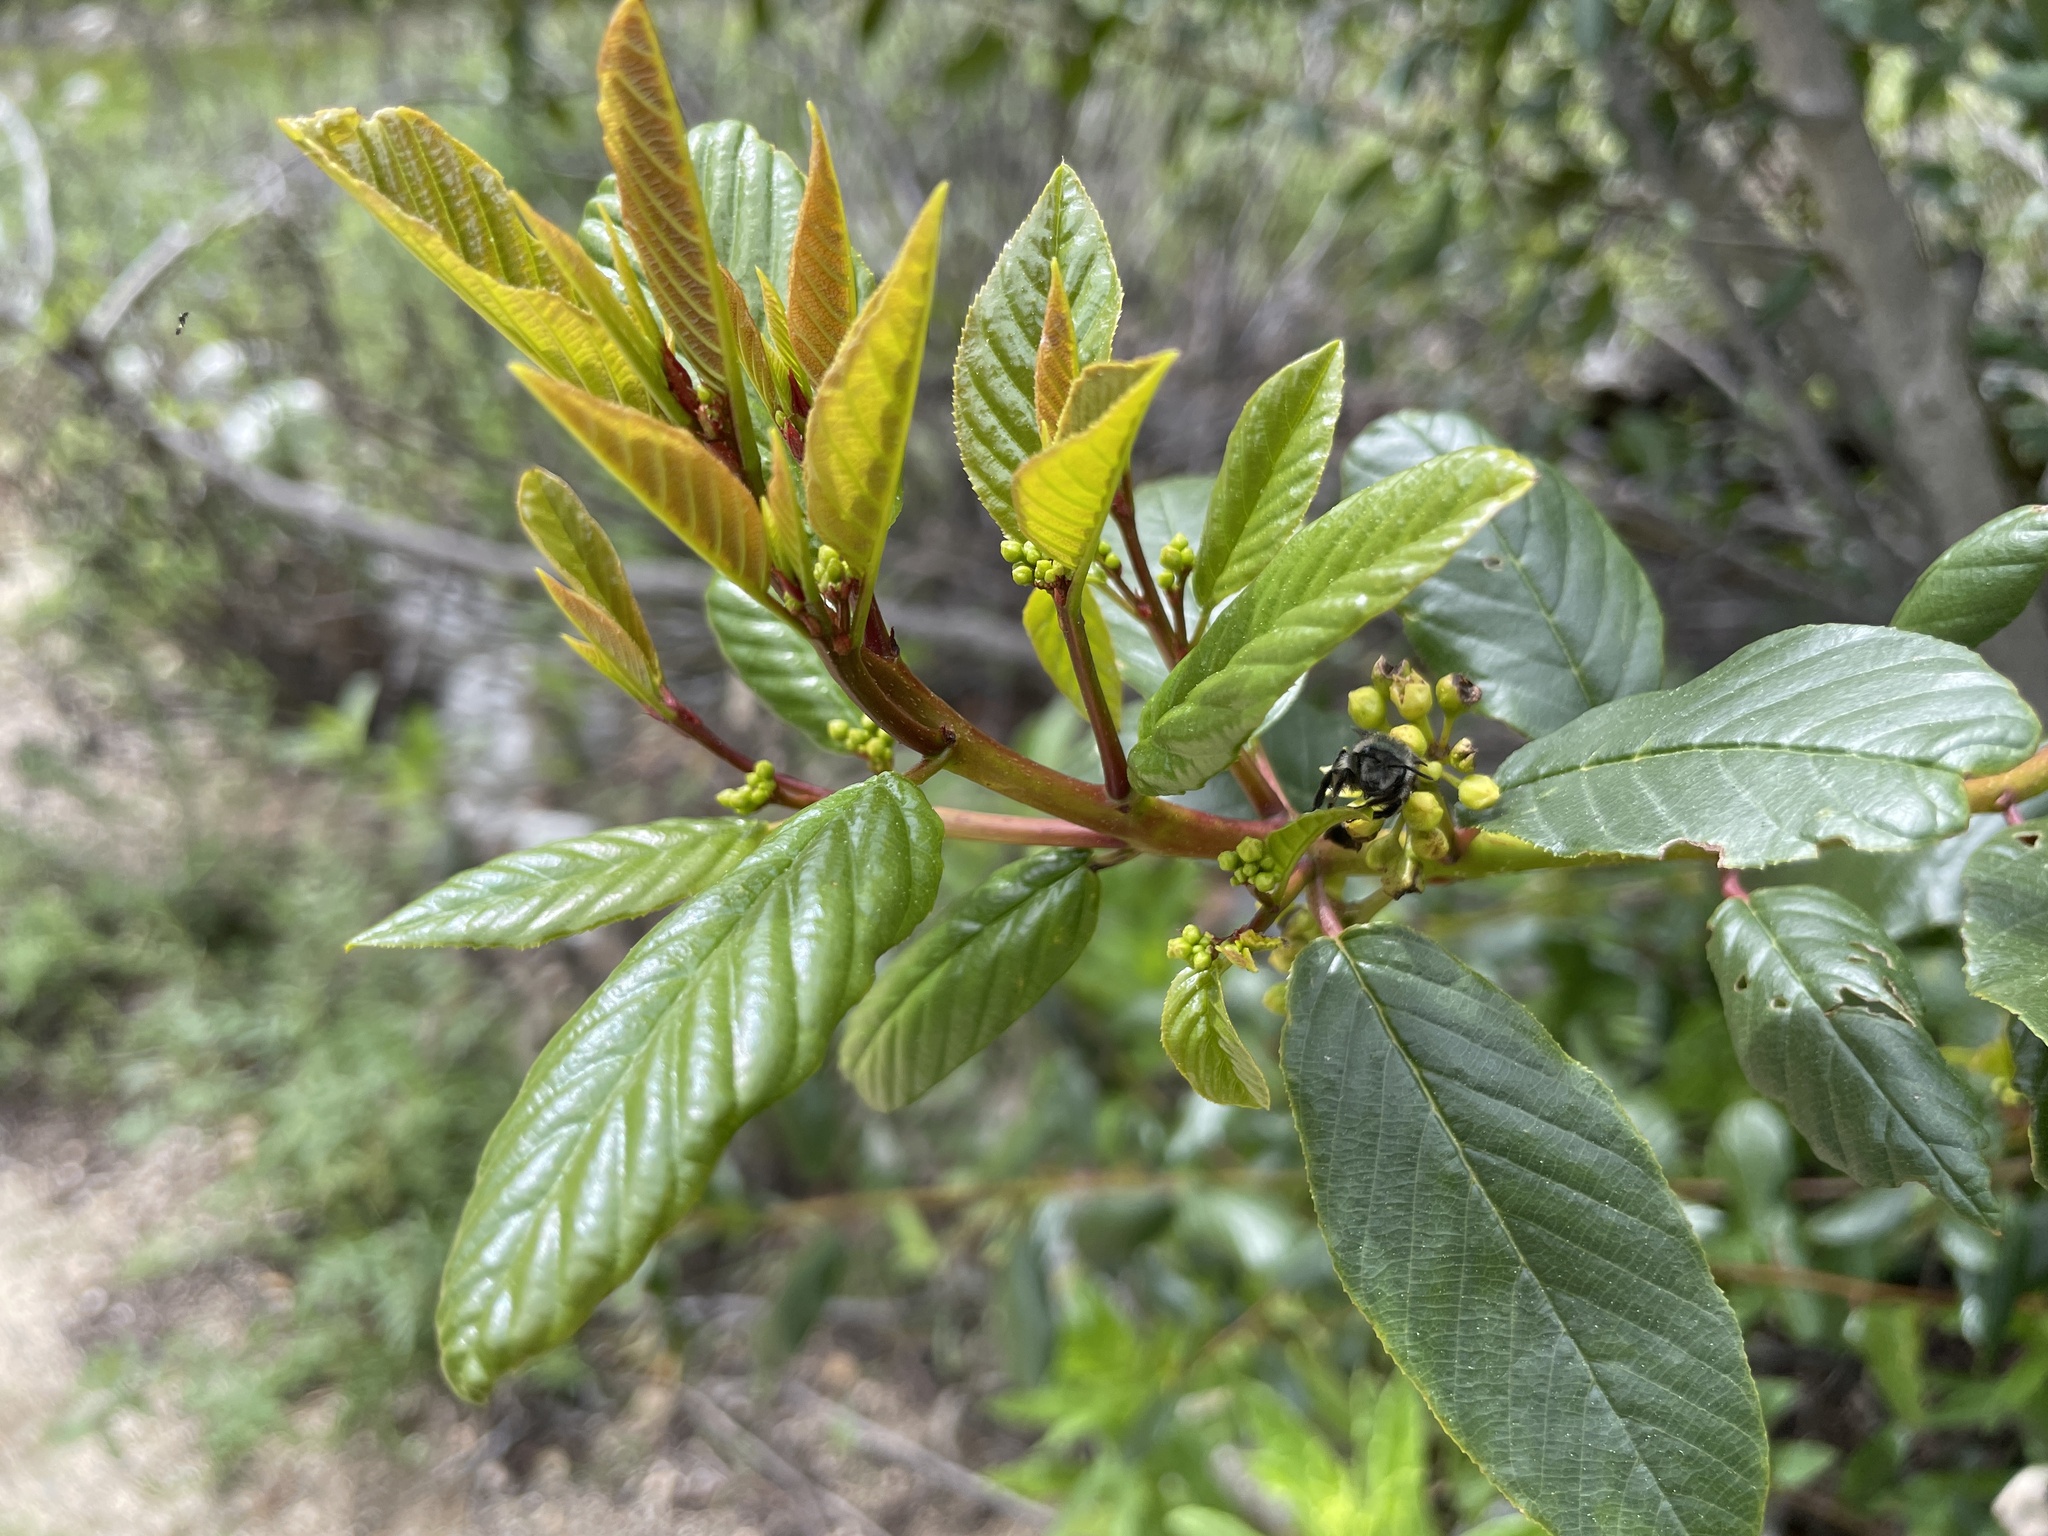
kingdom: Animalia
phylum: Arthropoda
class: Insecta
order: Hymenoptera
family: Andrenidae
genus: Andrena
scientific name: Andrena cerasifolii
